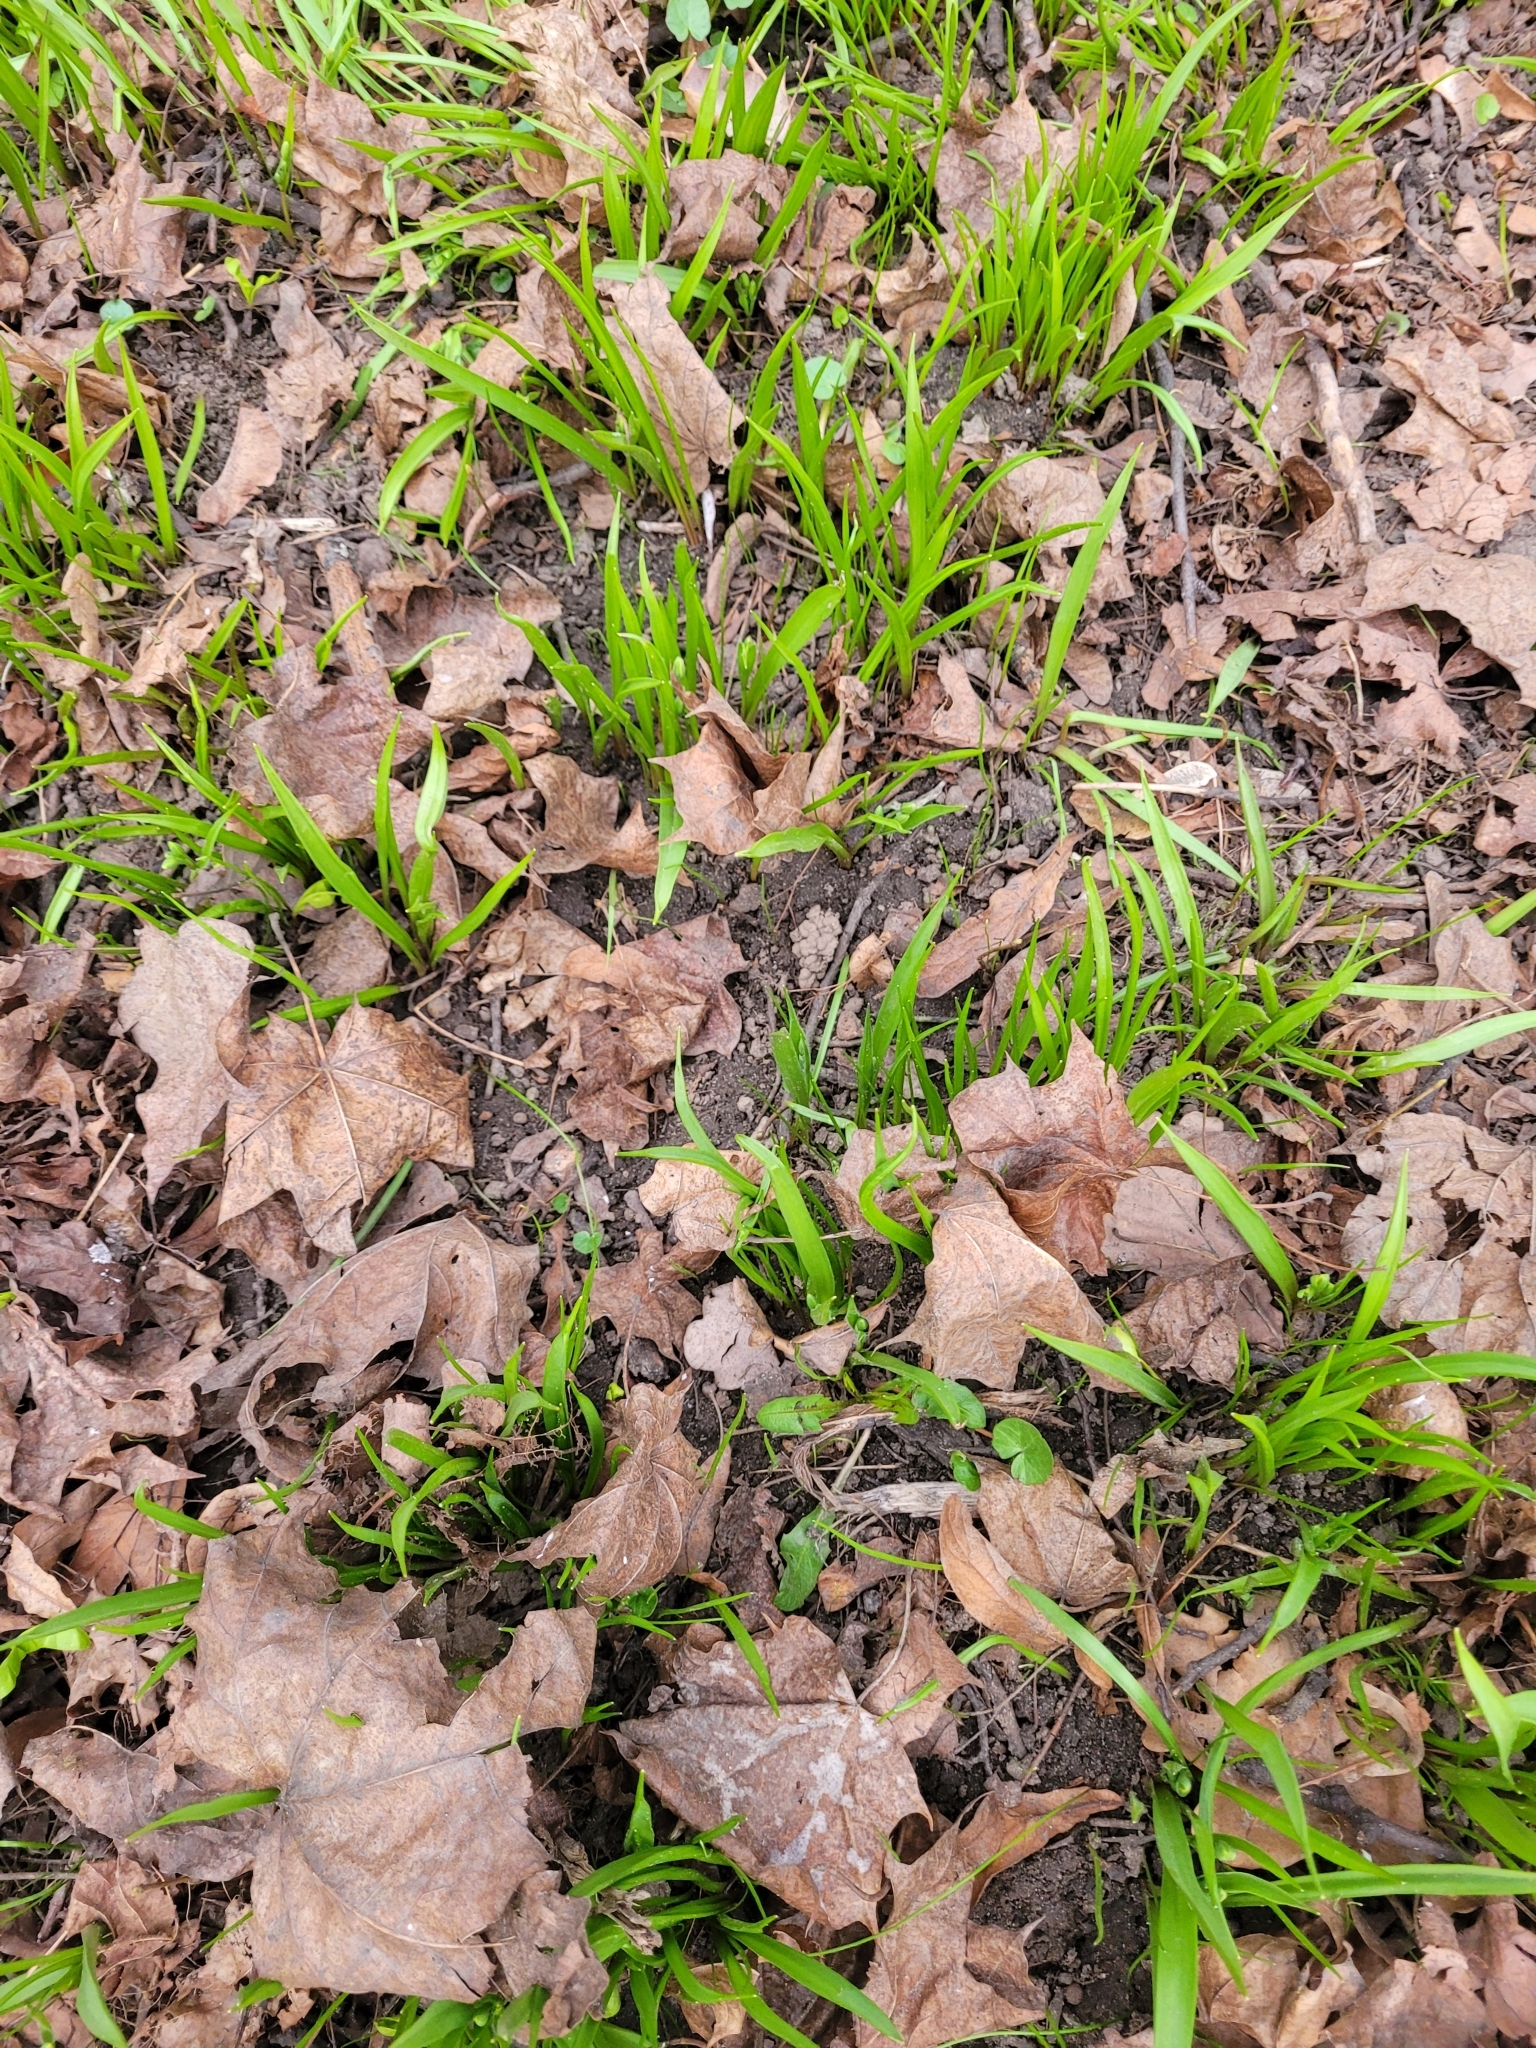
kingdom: Plantae
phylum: Tracheophyta
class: Liliopsida
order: Liliales
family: Liliaceae
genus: Gagea
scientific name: Gagea lutea
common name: Yellow star-of-bethlehem
